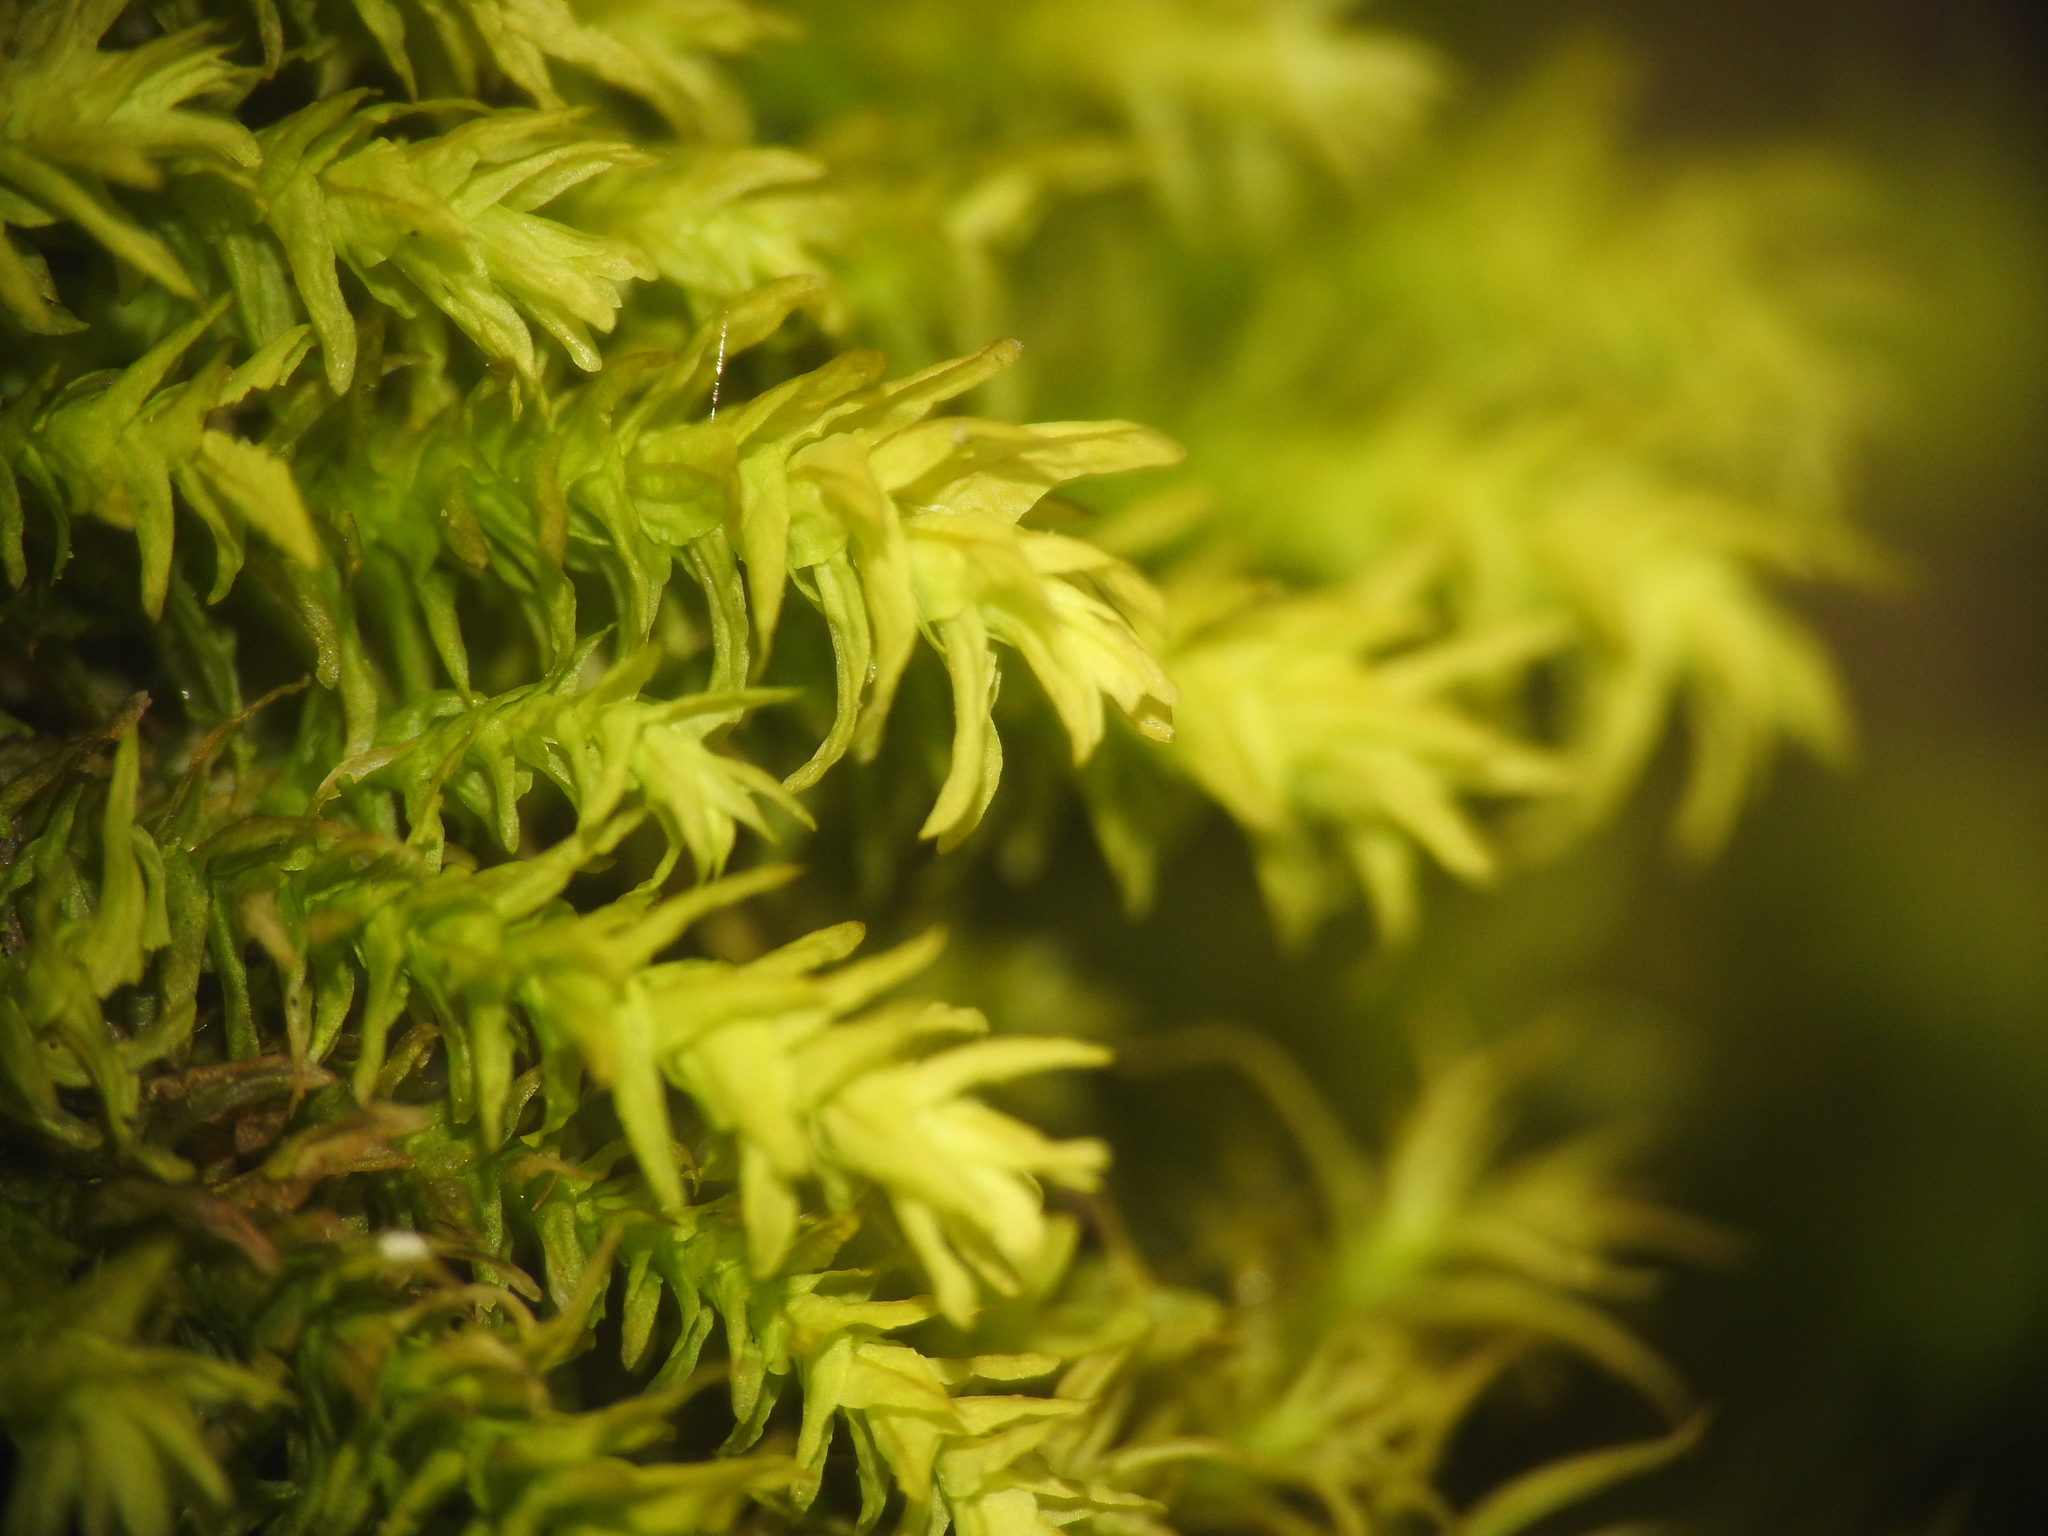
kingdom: Plantae
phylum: Bryophyta
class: Bryopsida
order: Hypnales
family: Anomodontaceae
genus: Anomodon
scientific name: Anomodon viticulosus
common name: Tall anomodon
